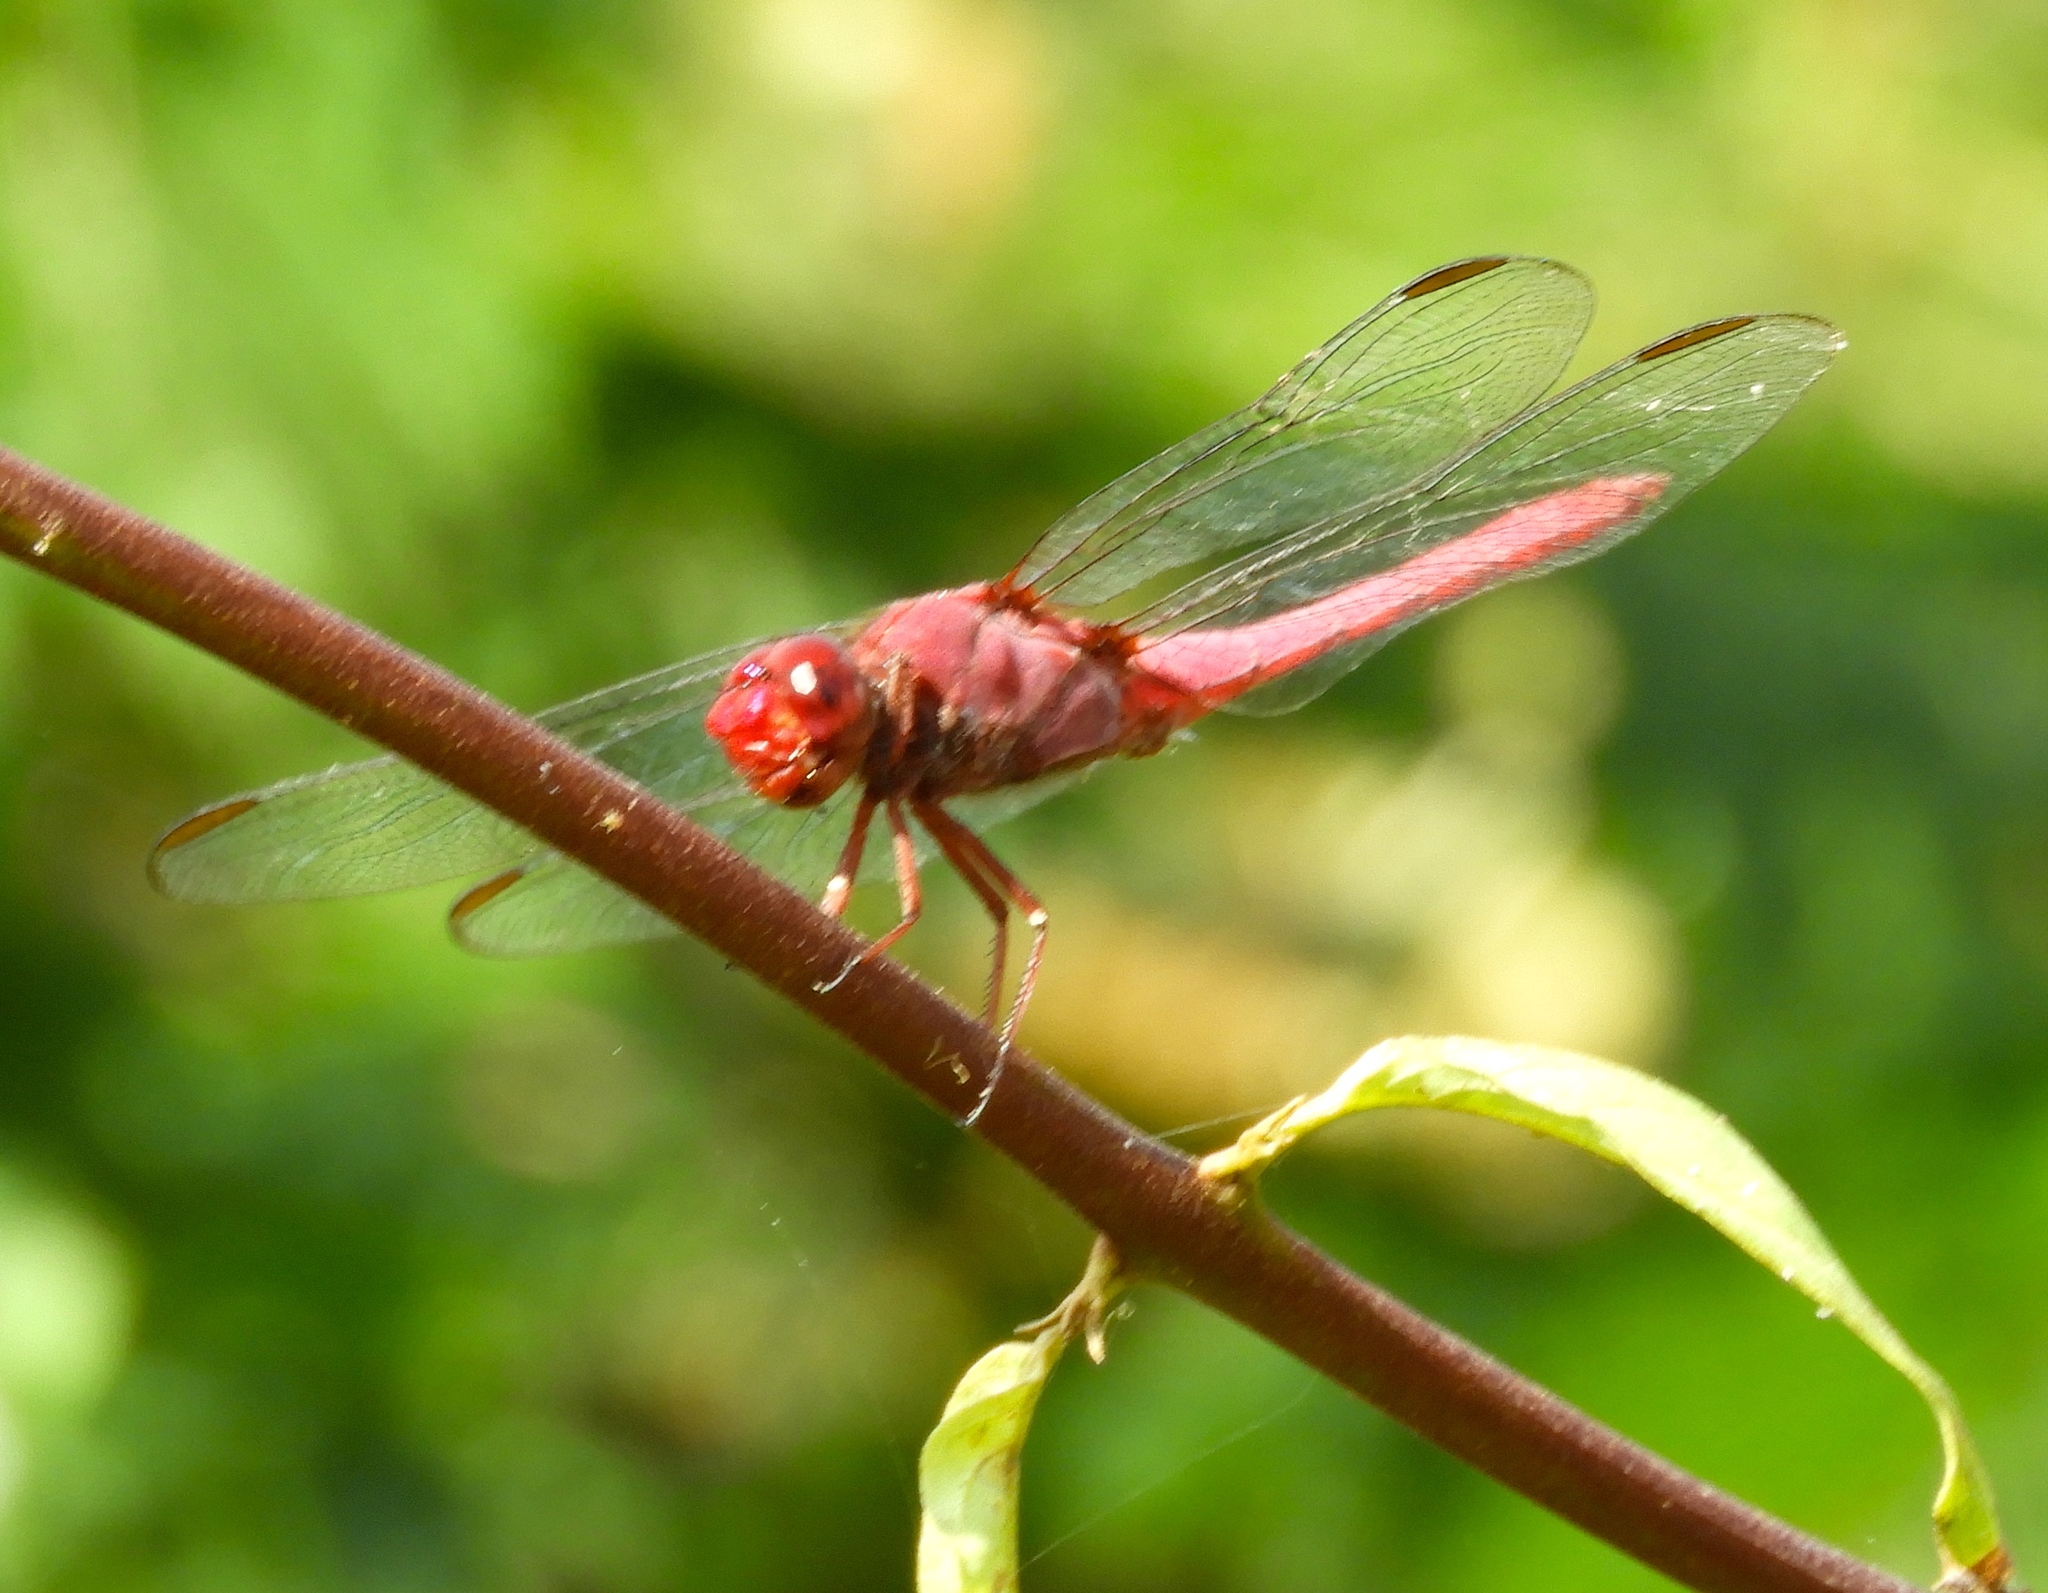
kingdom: Animalia
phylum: Arthropoda
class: Insecta
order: Odonata
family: Libellulidae
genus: Orthemis
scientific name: Orthemis discolor
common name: Carmine skimmer
